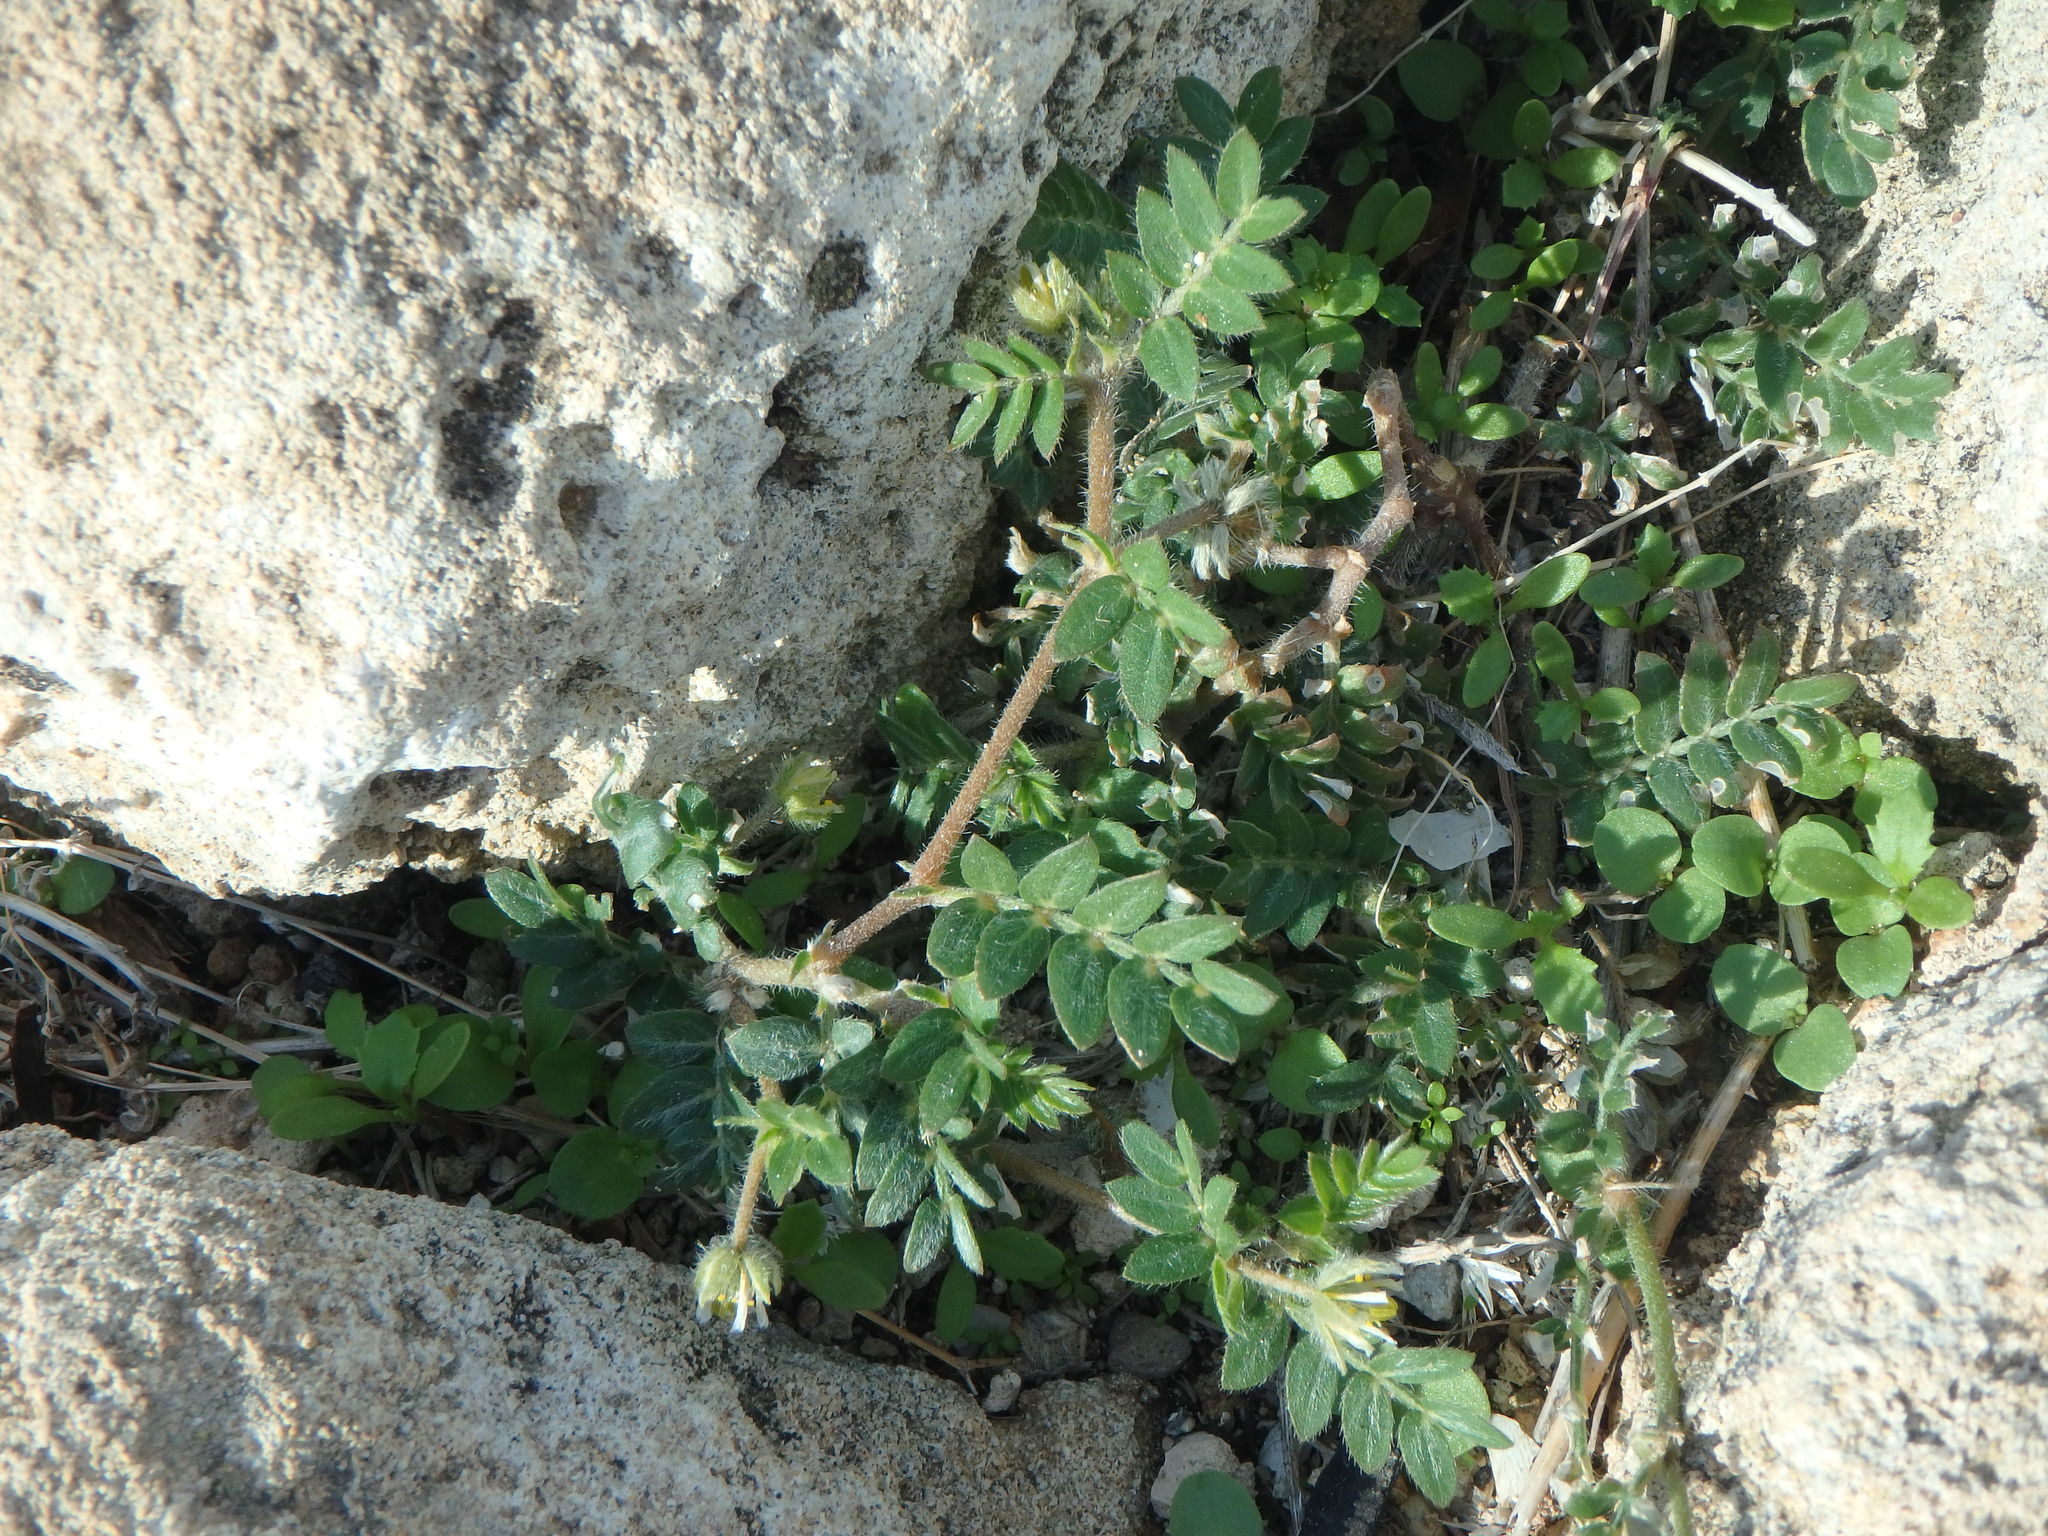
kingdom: Plantae
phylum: Tracheophyta
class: Magnoliopsida
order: Zygophyllales
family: Zygophyllaceae
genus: Tribulus
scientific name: Tribulus terrestris
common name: Puncturevine
